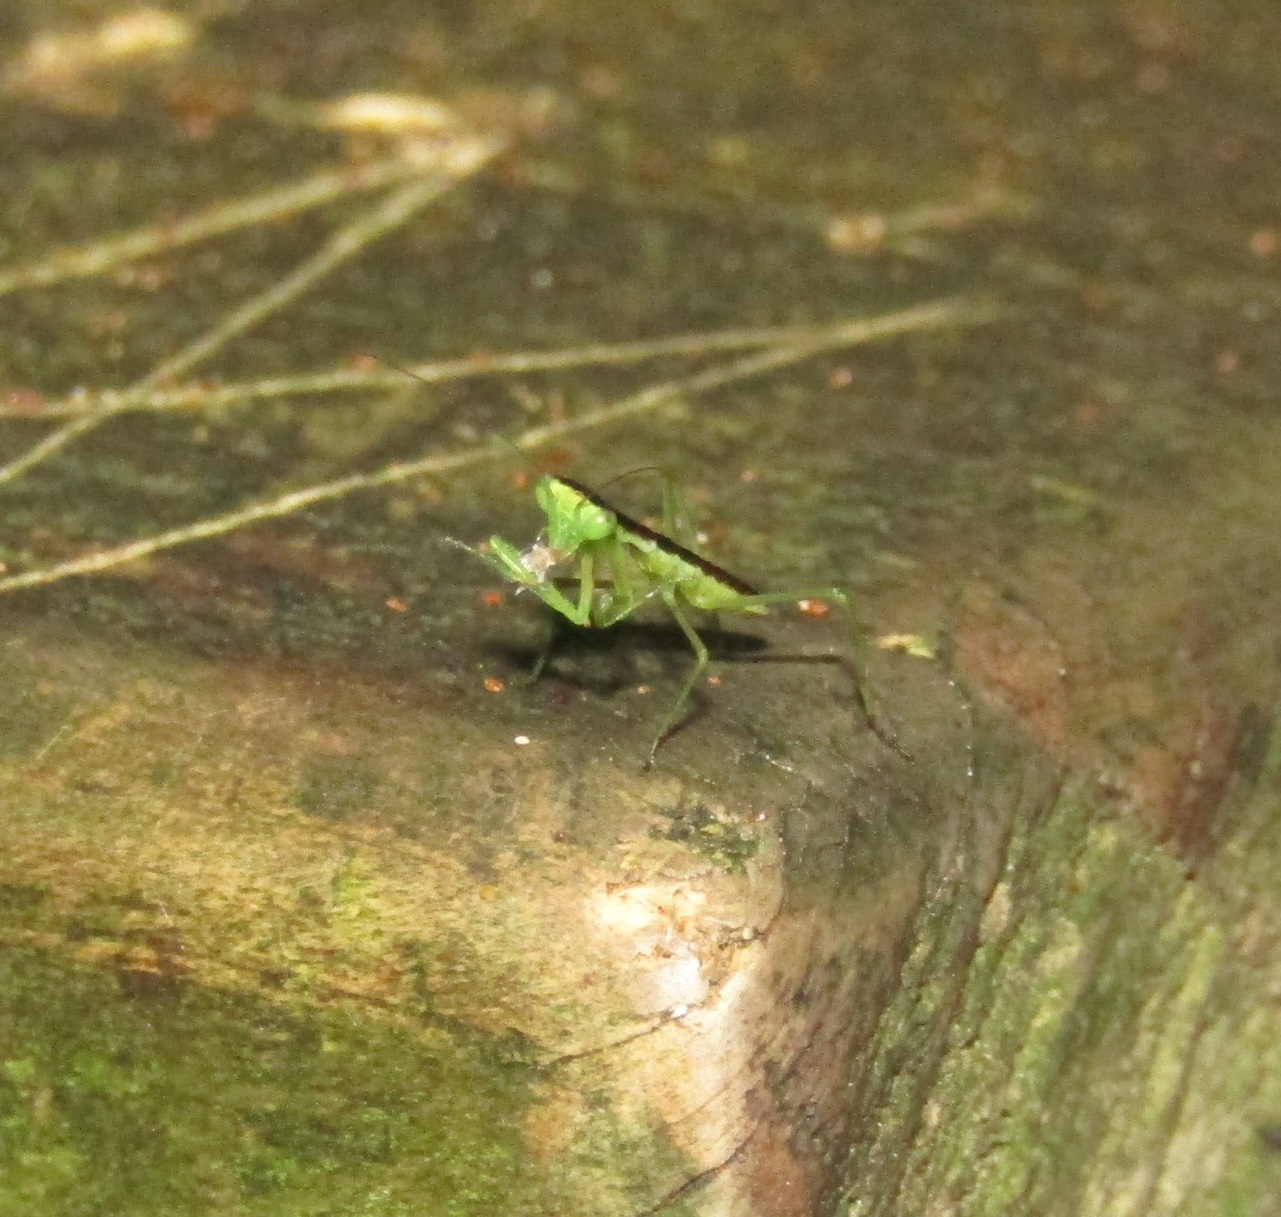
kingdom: Animalia
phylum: Arthropoda
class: Insecta
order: Mantodea
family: Mantidae
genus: Orthodera
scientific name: Orthodera novaezealandiae
